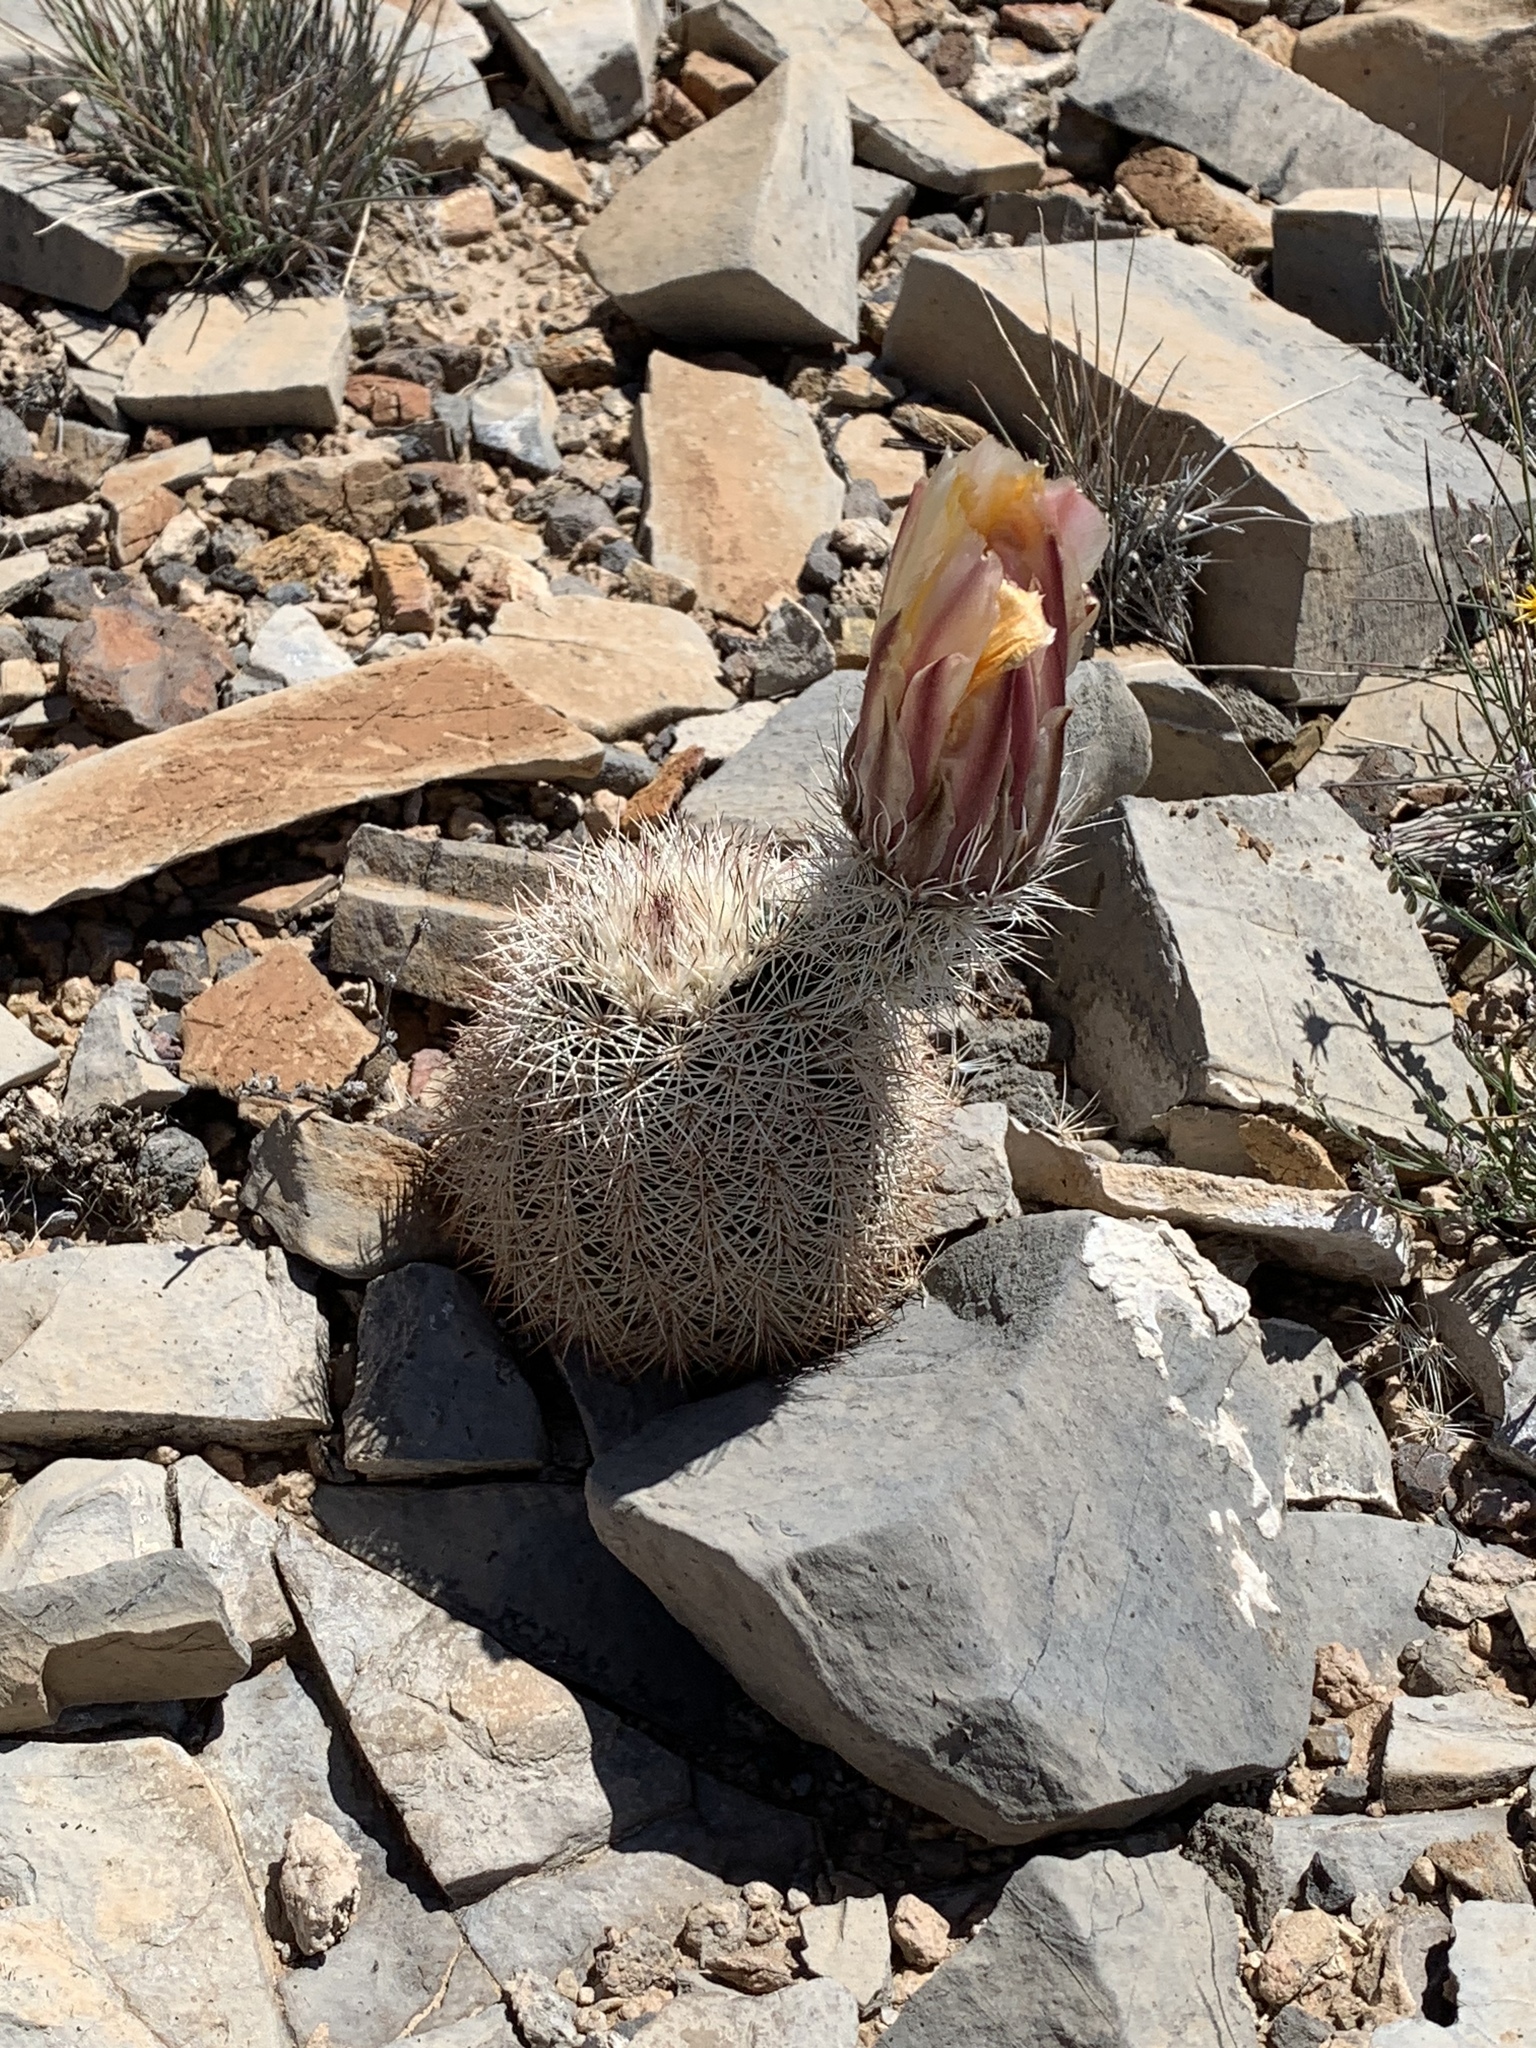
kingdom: Plantae
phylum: Tracheophyta
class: Magnoliopsida
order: Caryophyllales
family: Cactaceae
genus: Echinocereus
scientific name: Echinocereus dasyacanthus
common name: Spiny hedgehog cactus
